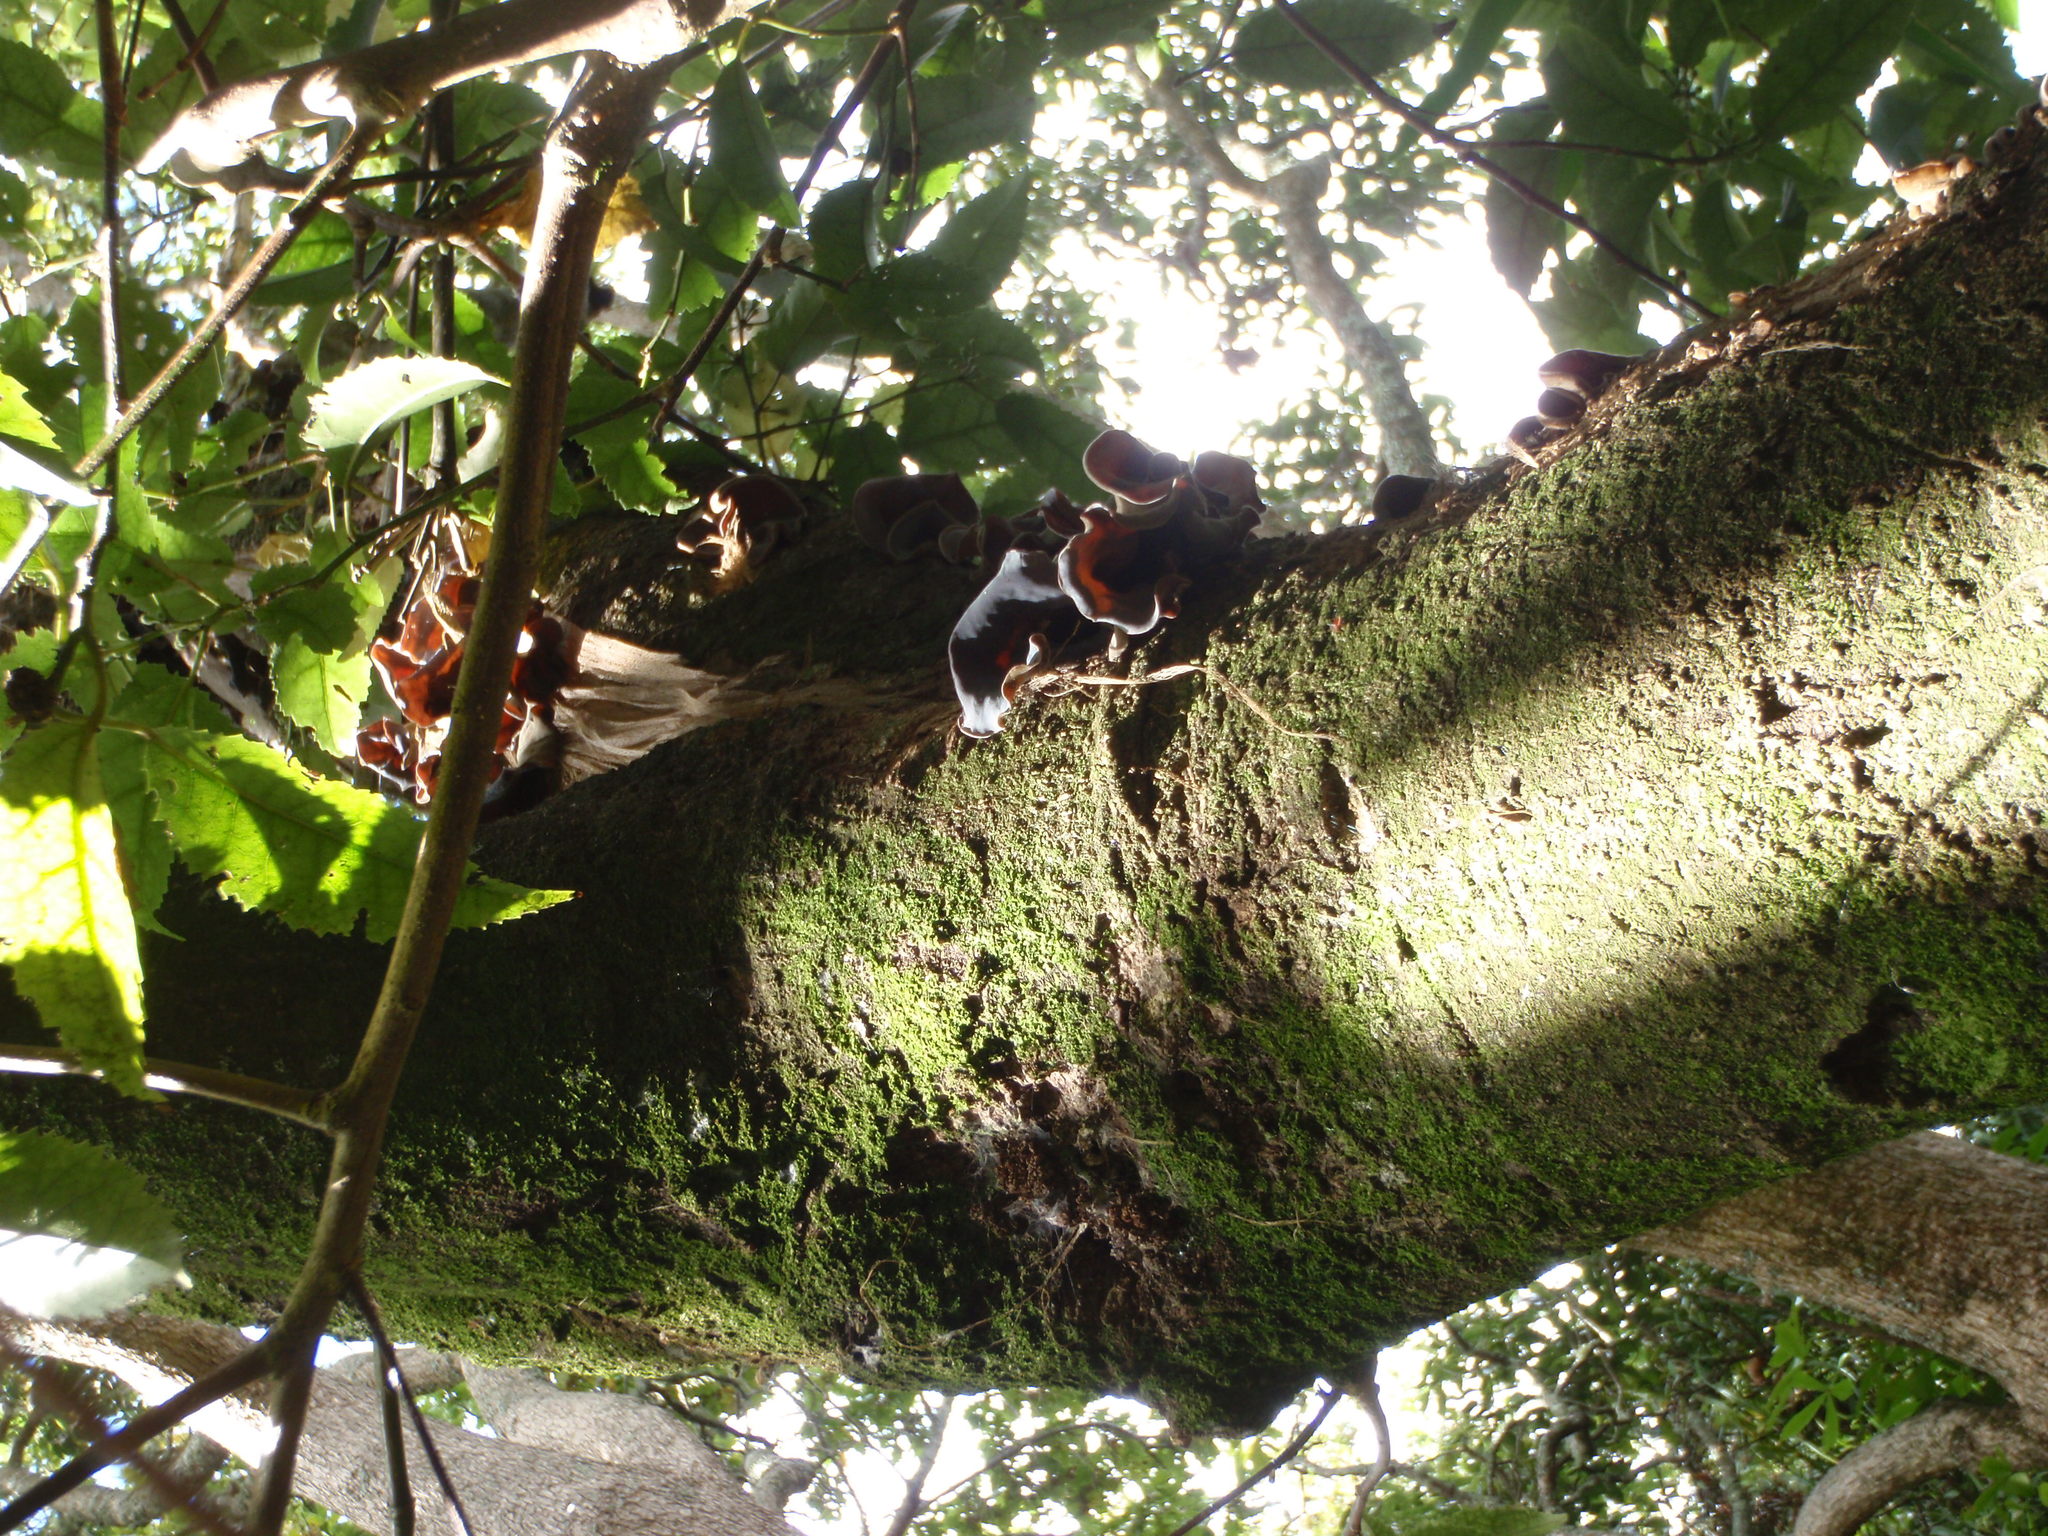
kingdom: Fungi
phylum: Basidiomycota
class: Agaricomycetes
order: Auriculariales
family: Auriculariaceae
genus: Auricularia
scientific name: Auricularia cornea
